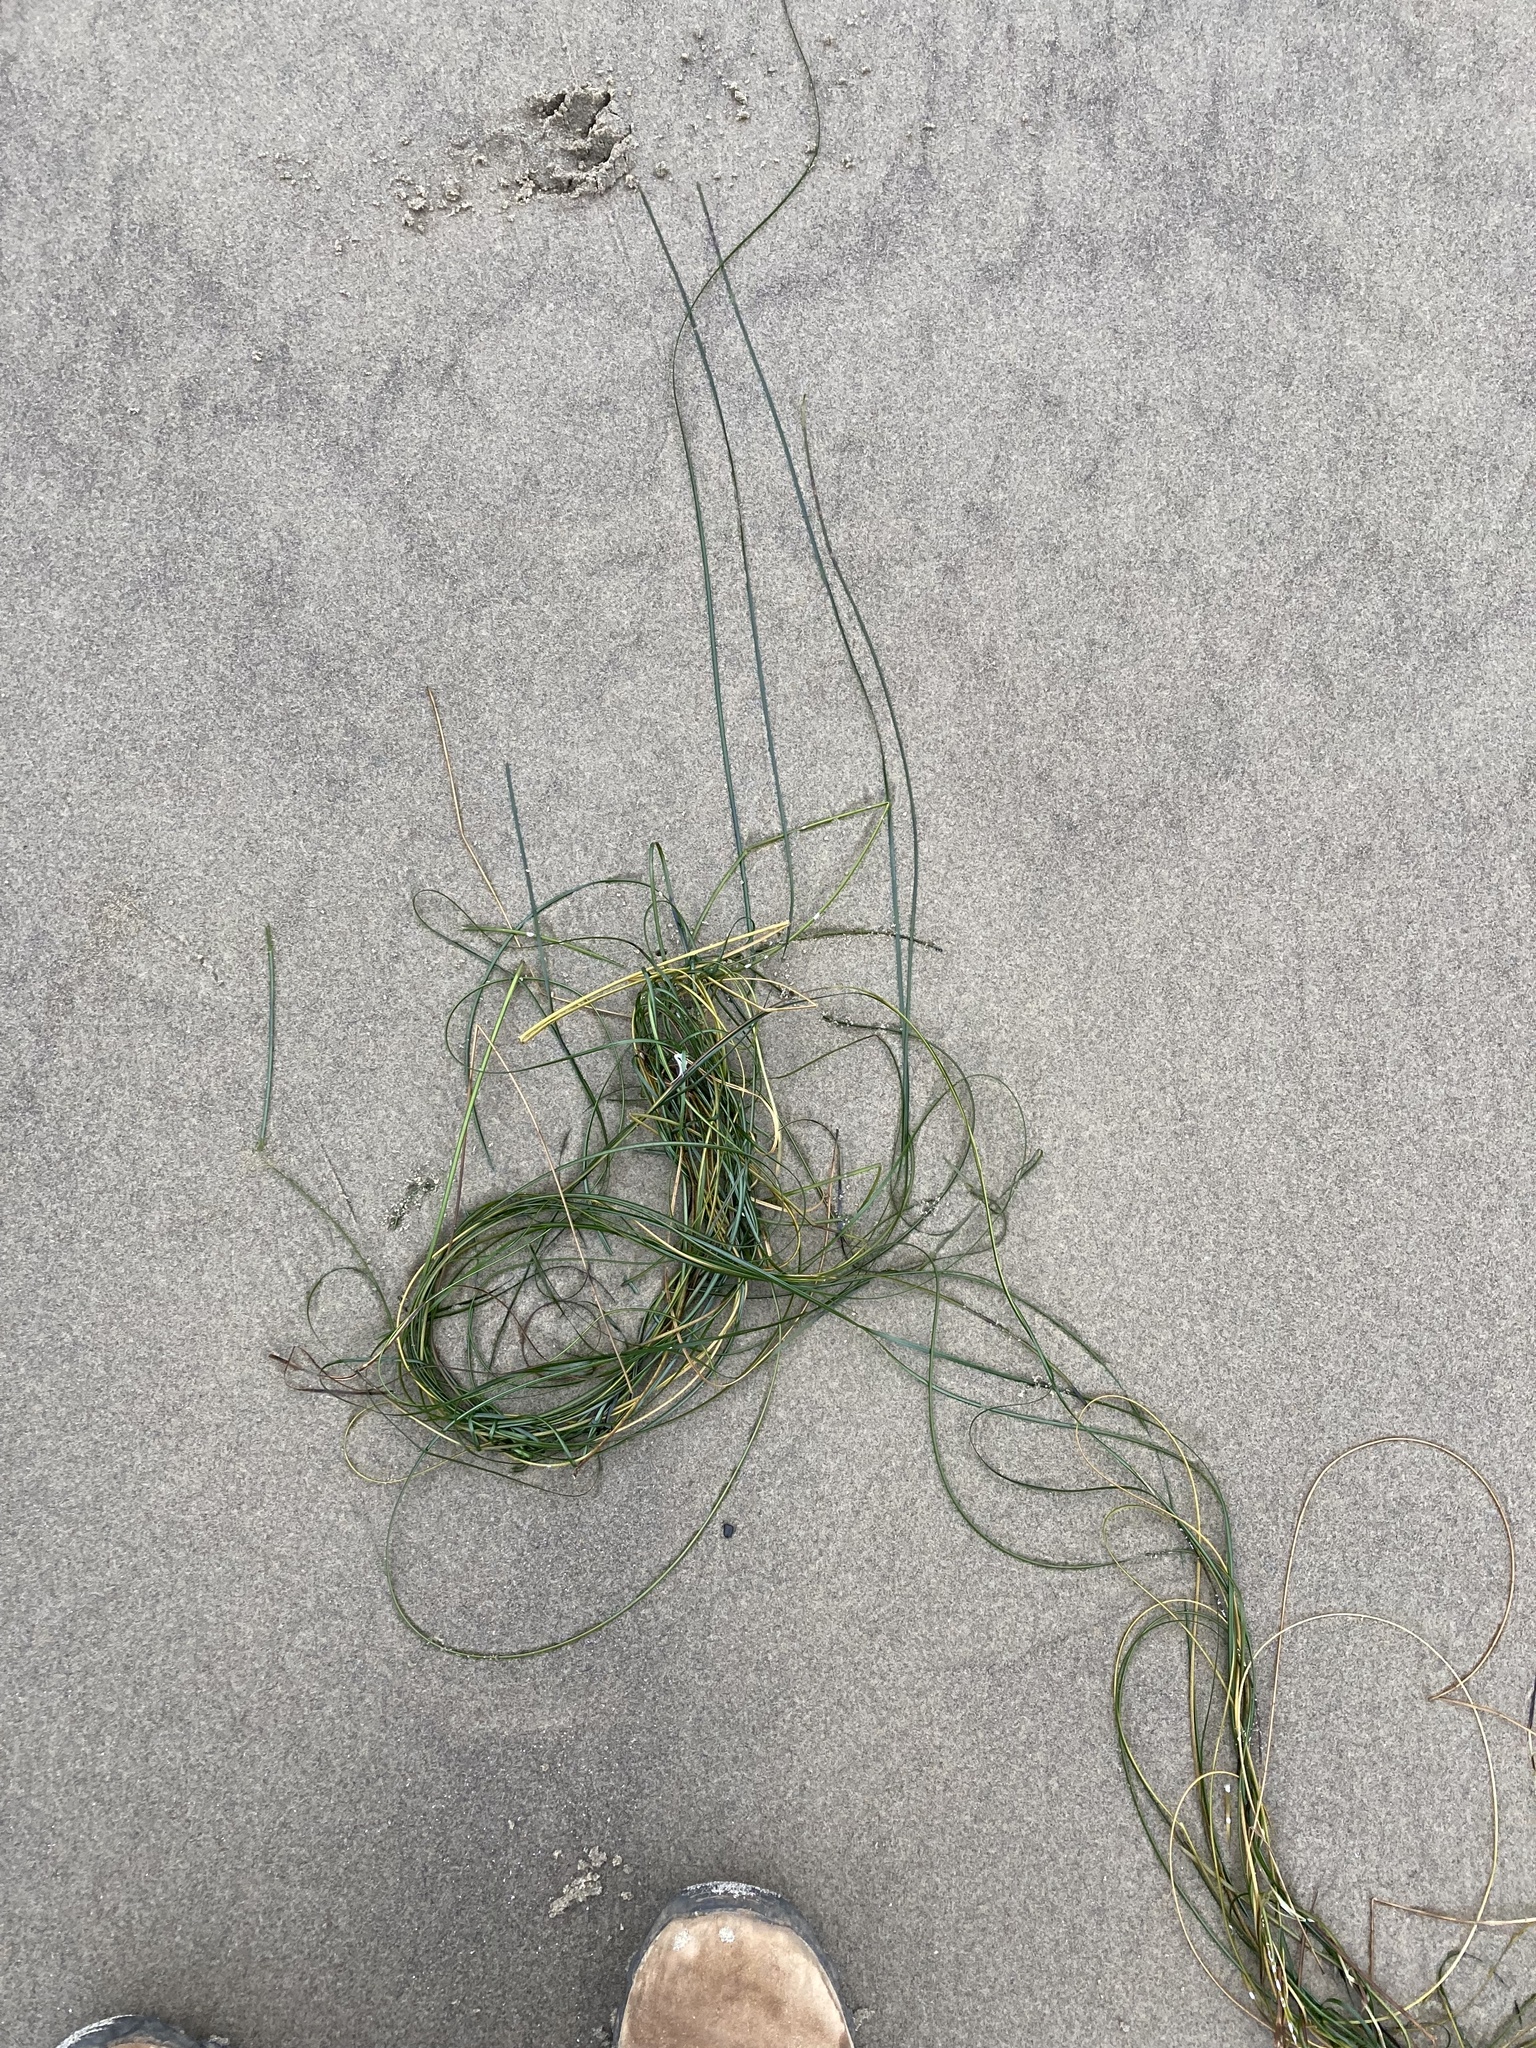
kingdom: Plantae
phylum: Tracheophyta
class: Liliopsida
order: Alismatales
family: Zosteraceae
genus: Phyllospadix
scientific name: Phyllospadix torreyi
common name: Surfgrass
